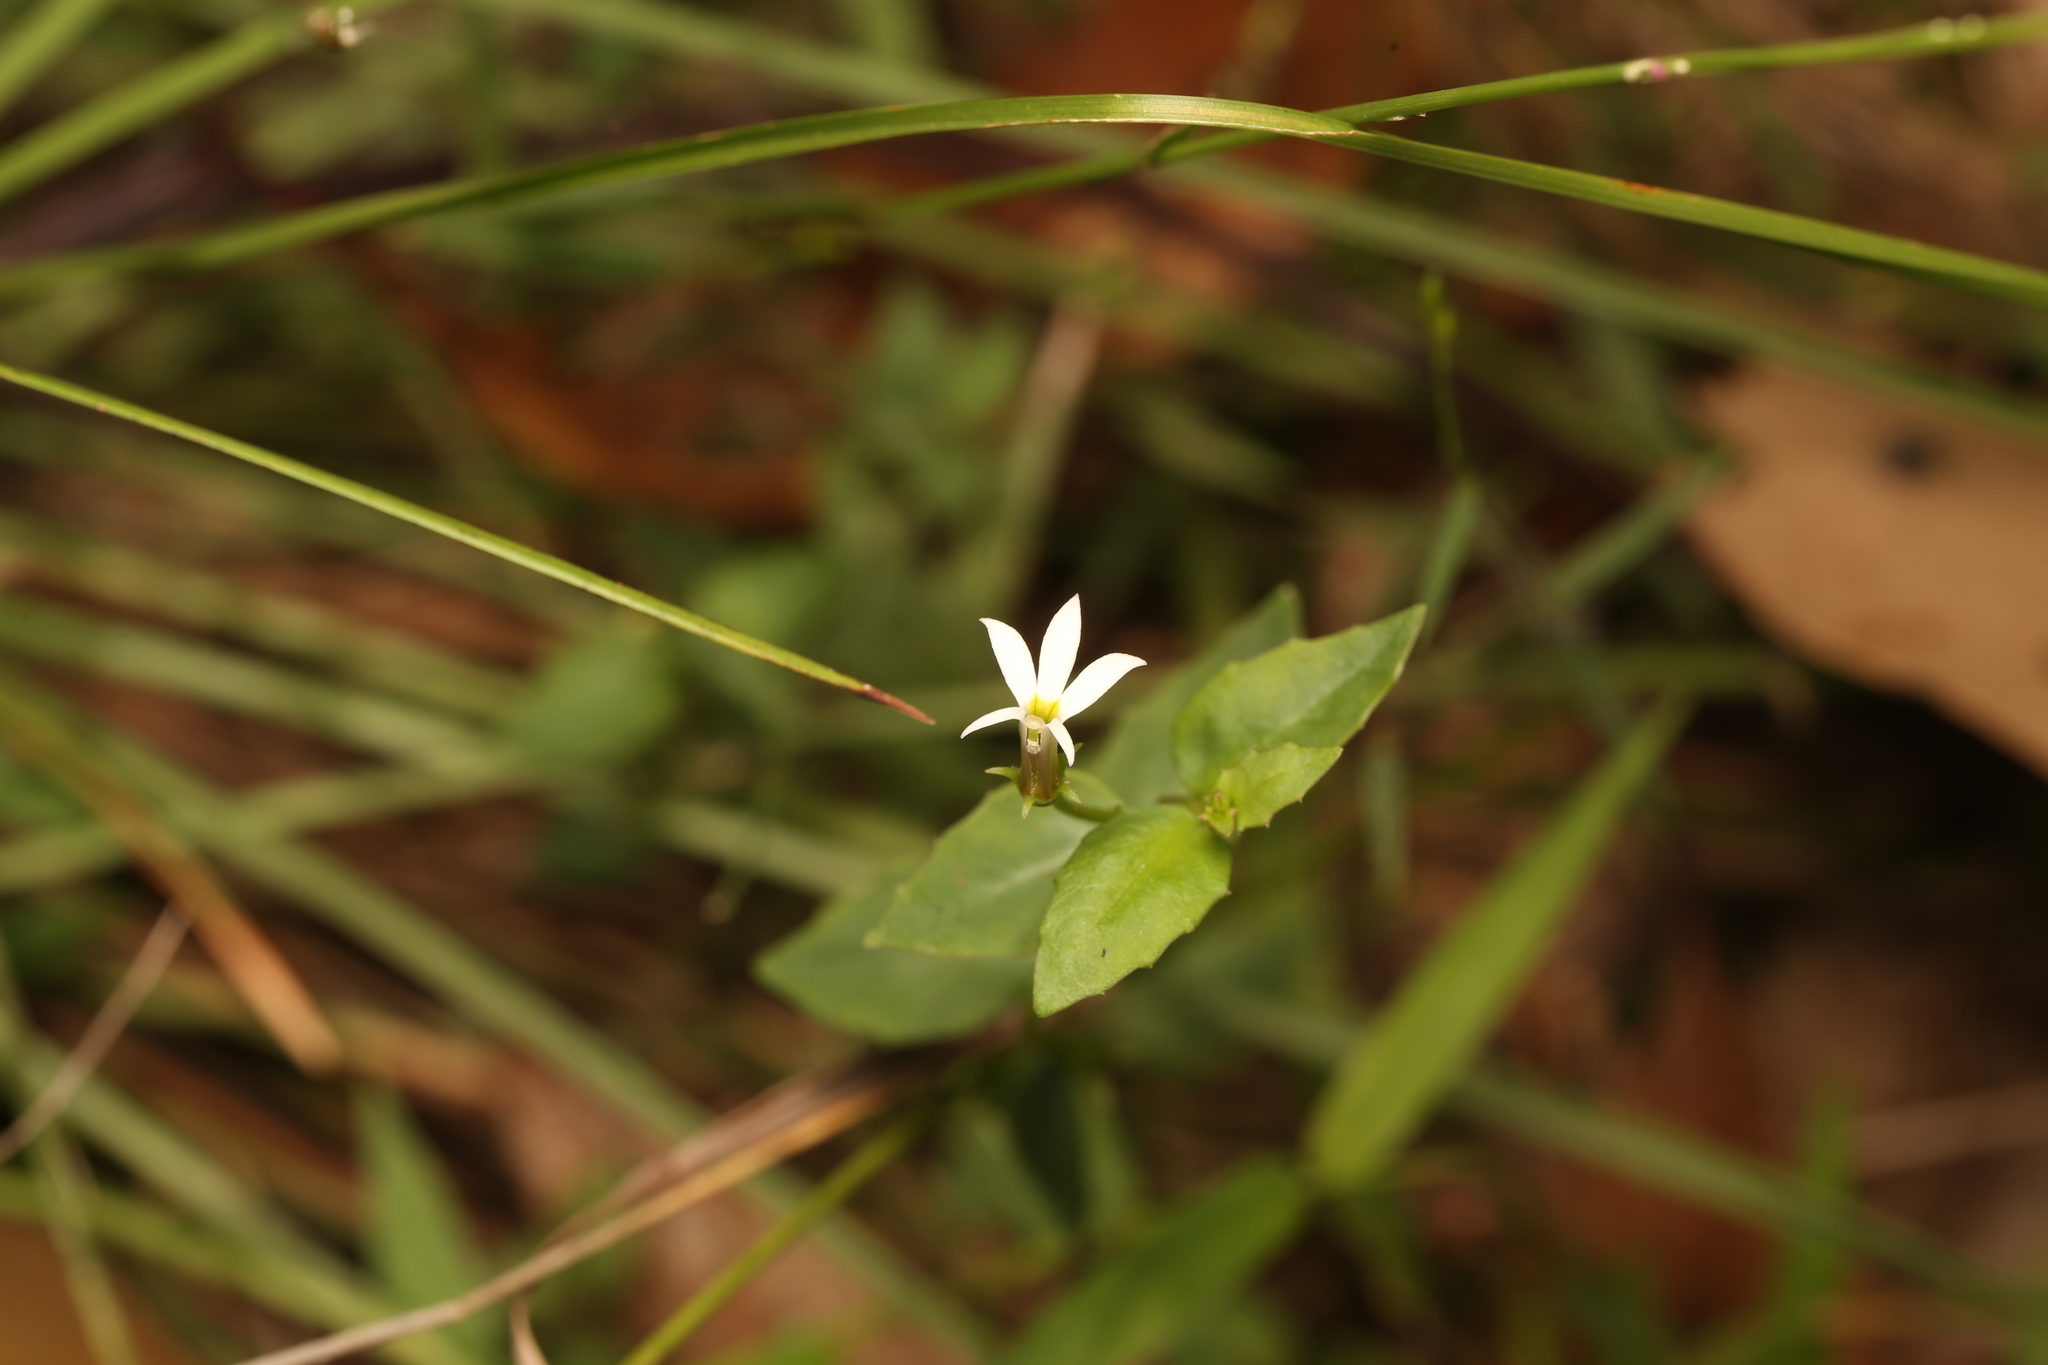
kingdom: Plantae
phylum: Tracheophyta
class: Magnoliopsida
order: Asterales
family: Campanulaceae
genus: Lobelia
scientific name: Lobelia purpurascens
